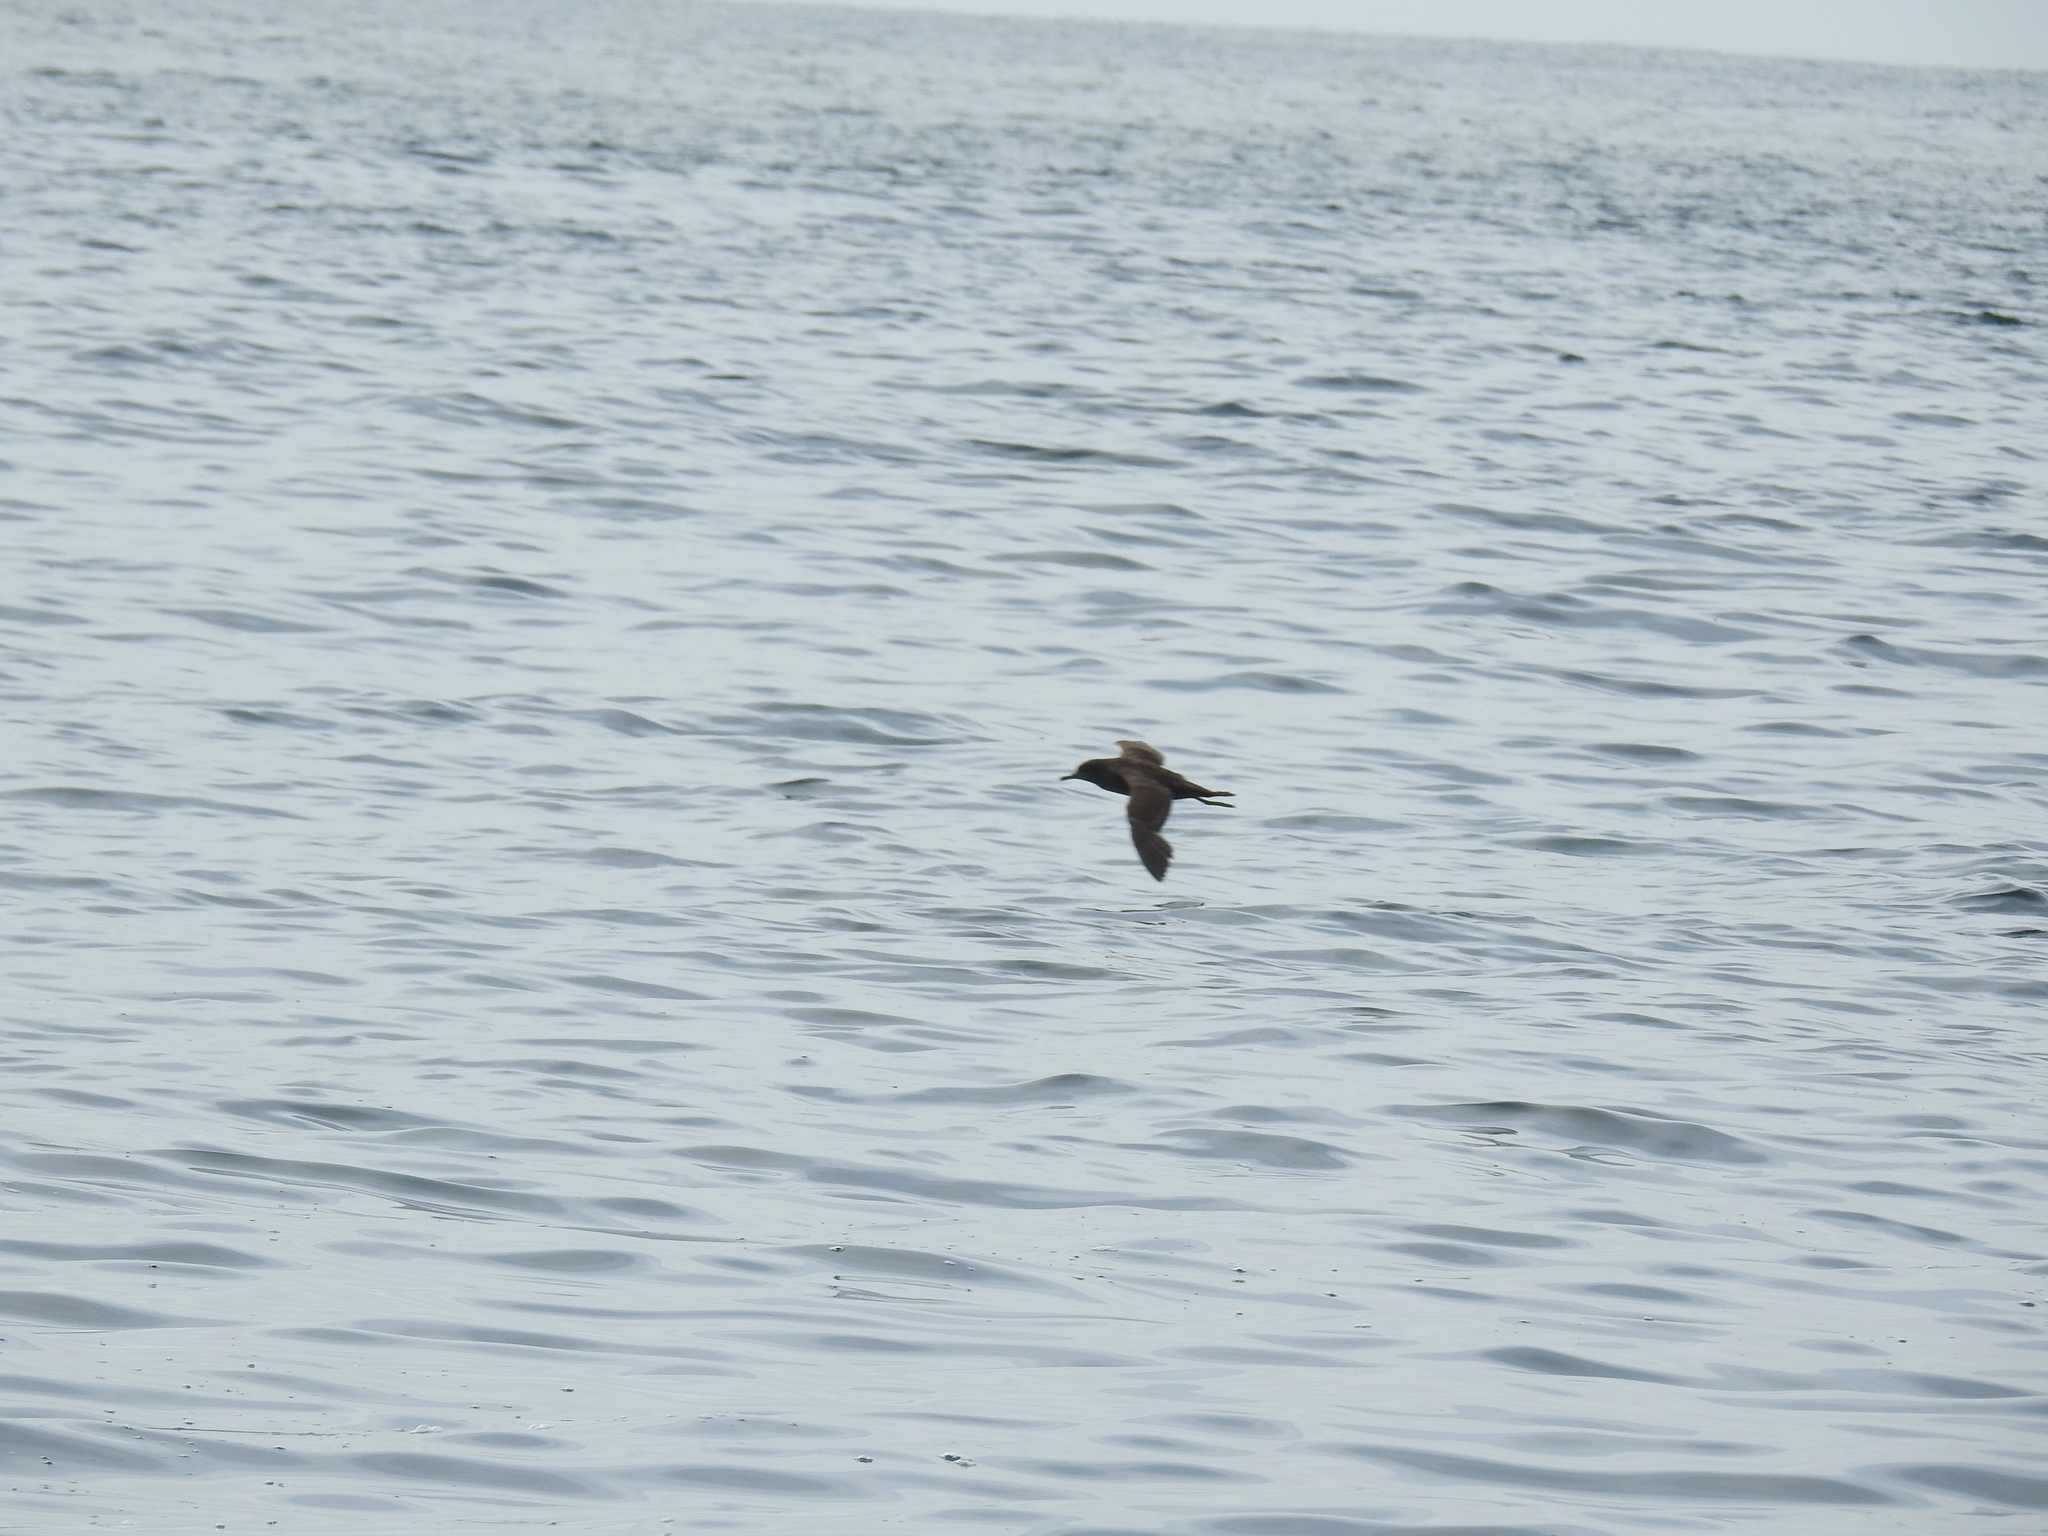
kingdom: Animalia
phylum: Chordata
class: Aves
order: Procellariiformes
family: Procellariidae
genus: Puffinus
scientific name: Puffinus griseus
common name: Sooty shearwater
